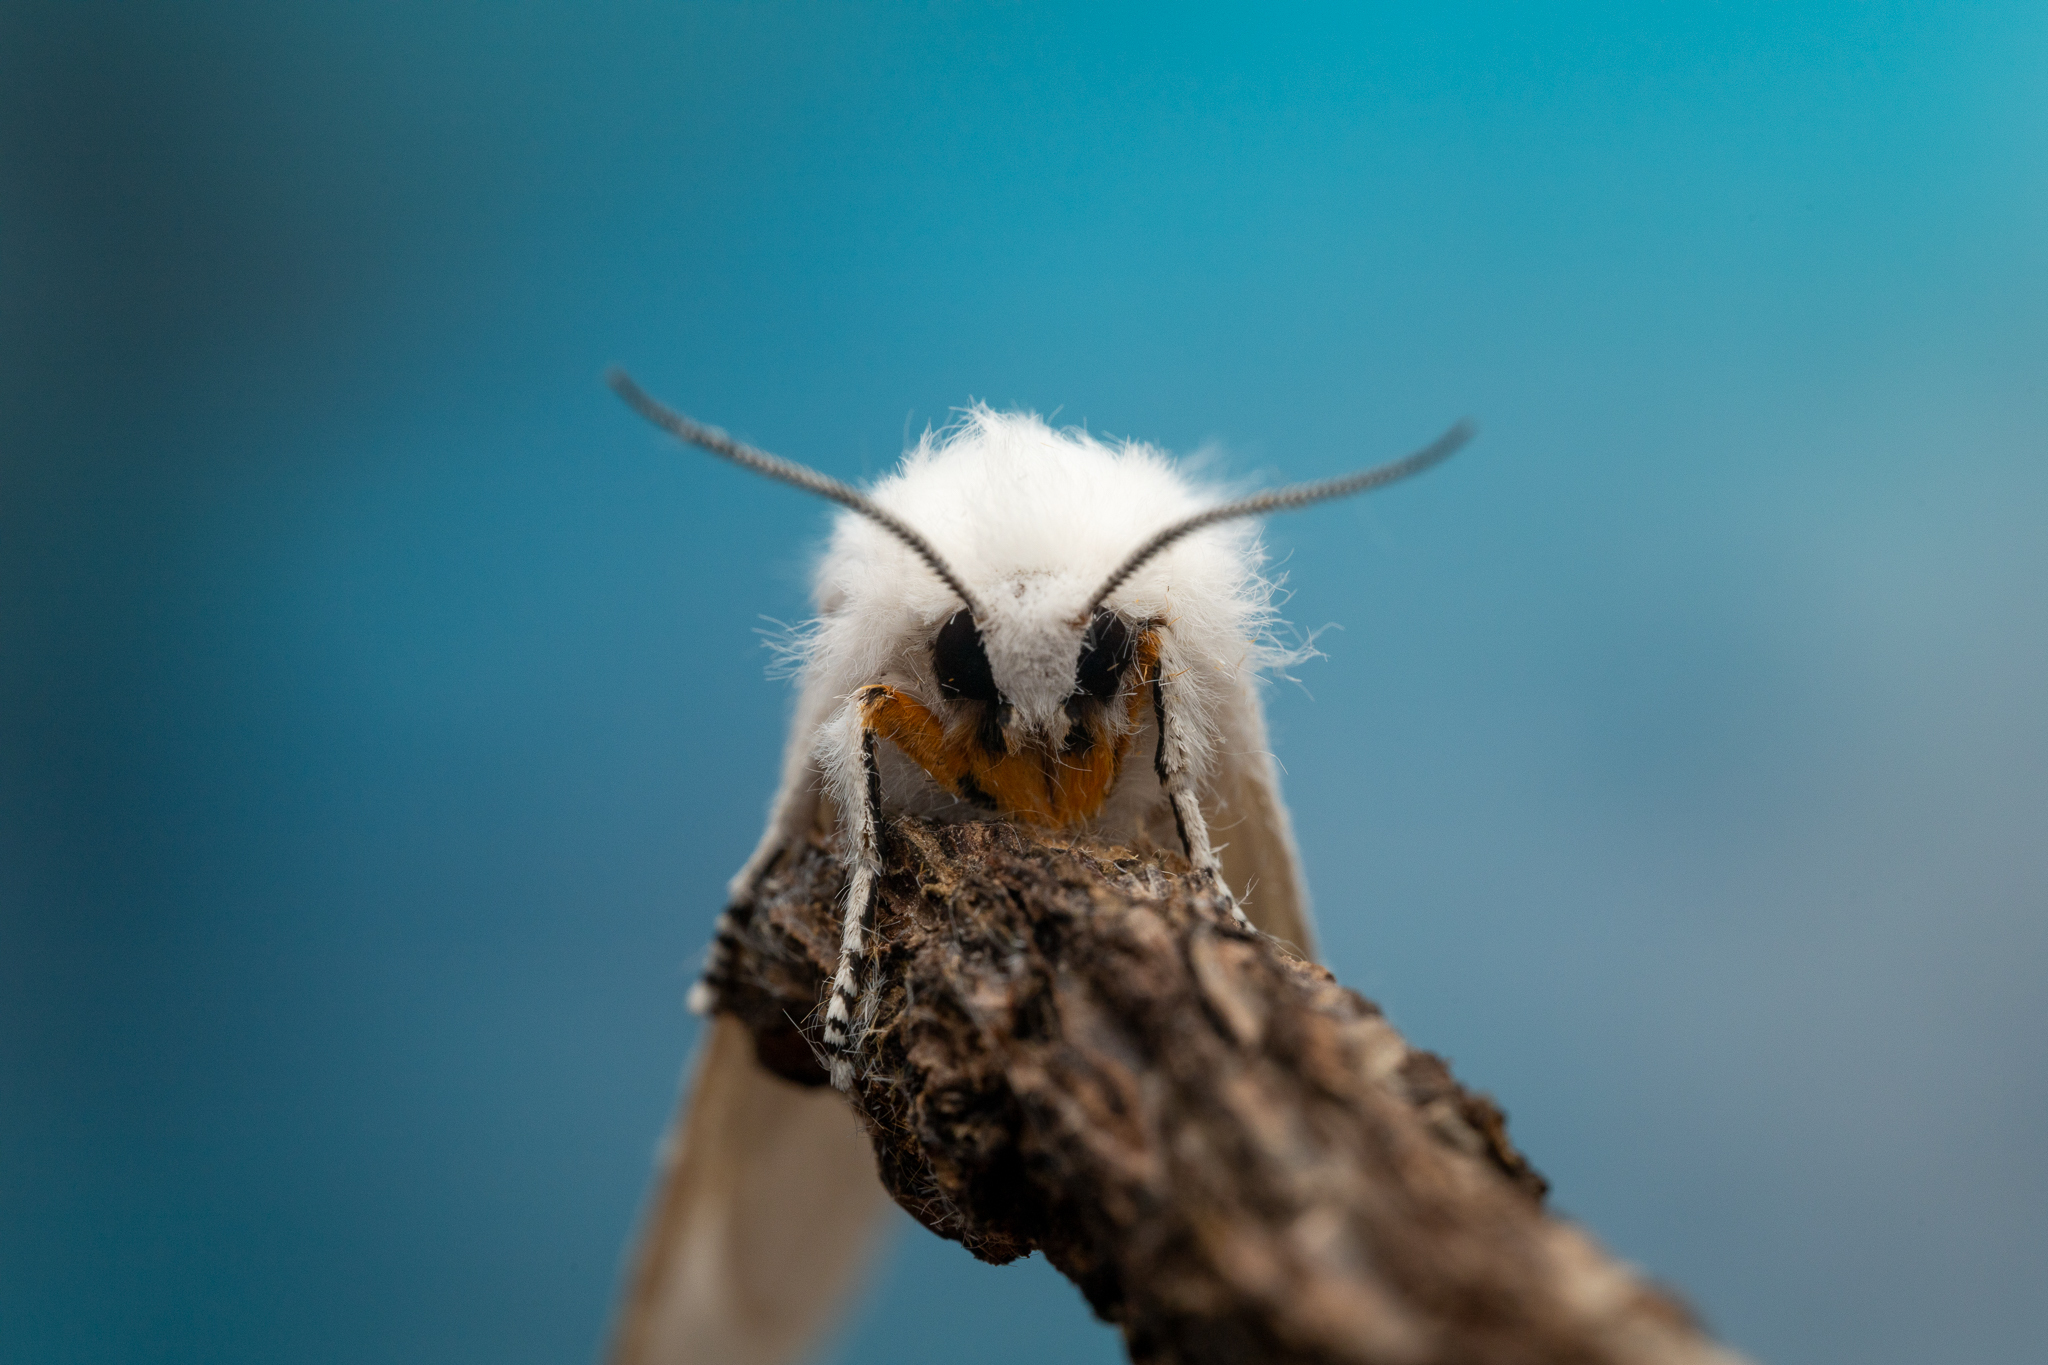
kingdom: Animalia
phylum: Arthropoda
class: Insecta
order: Lepidoptera
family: Erebidae
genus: Spilosoma
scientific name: Spilosoma virginica
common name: Virginia tiger moth
